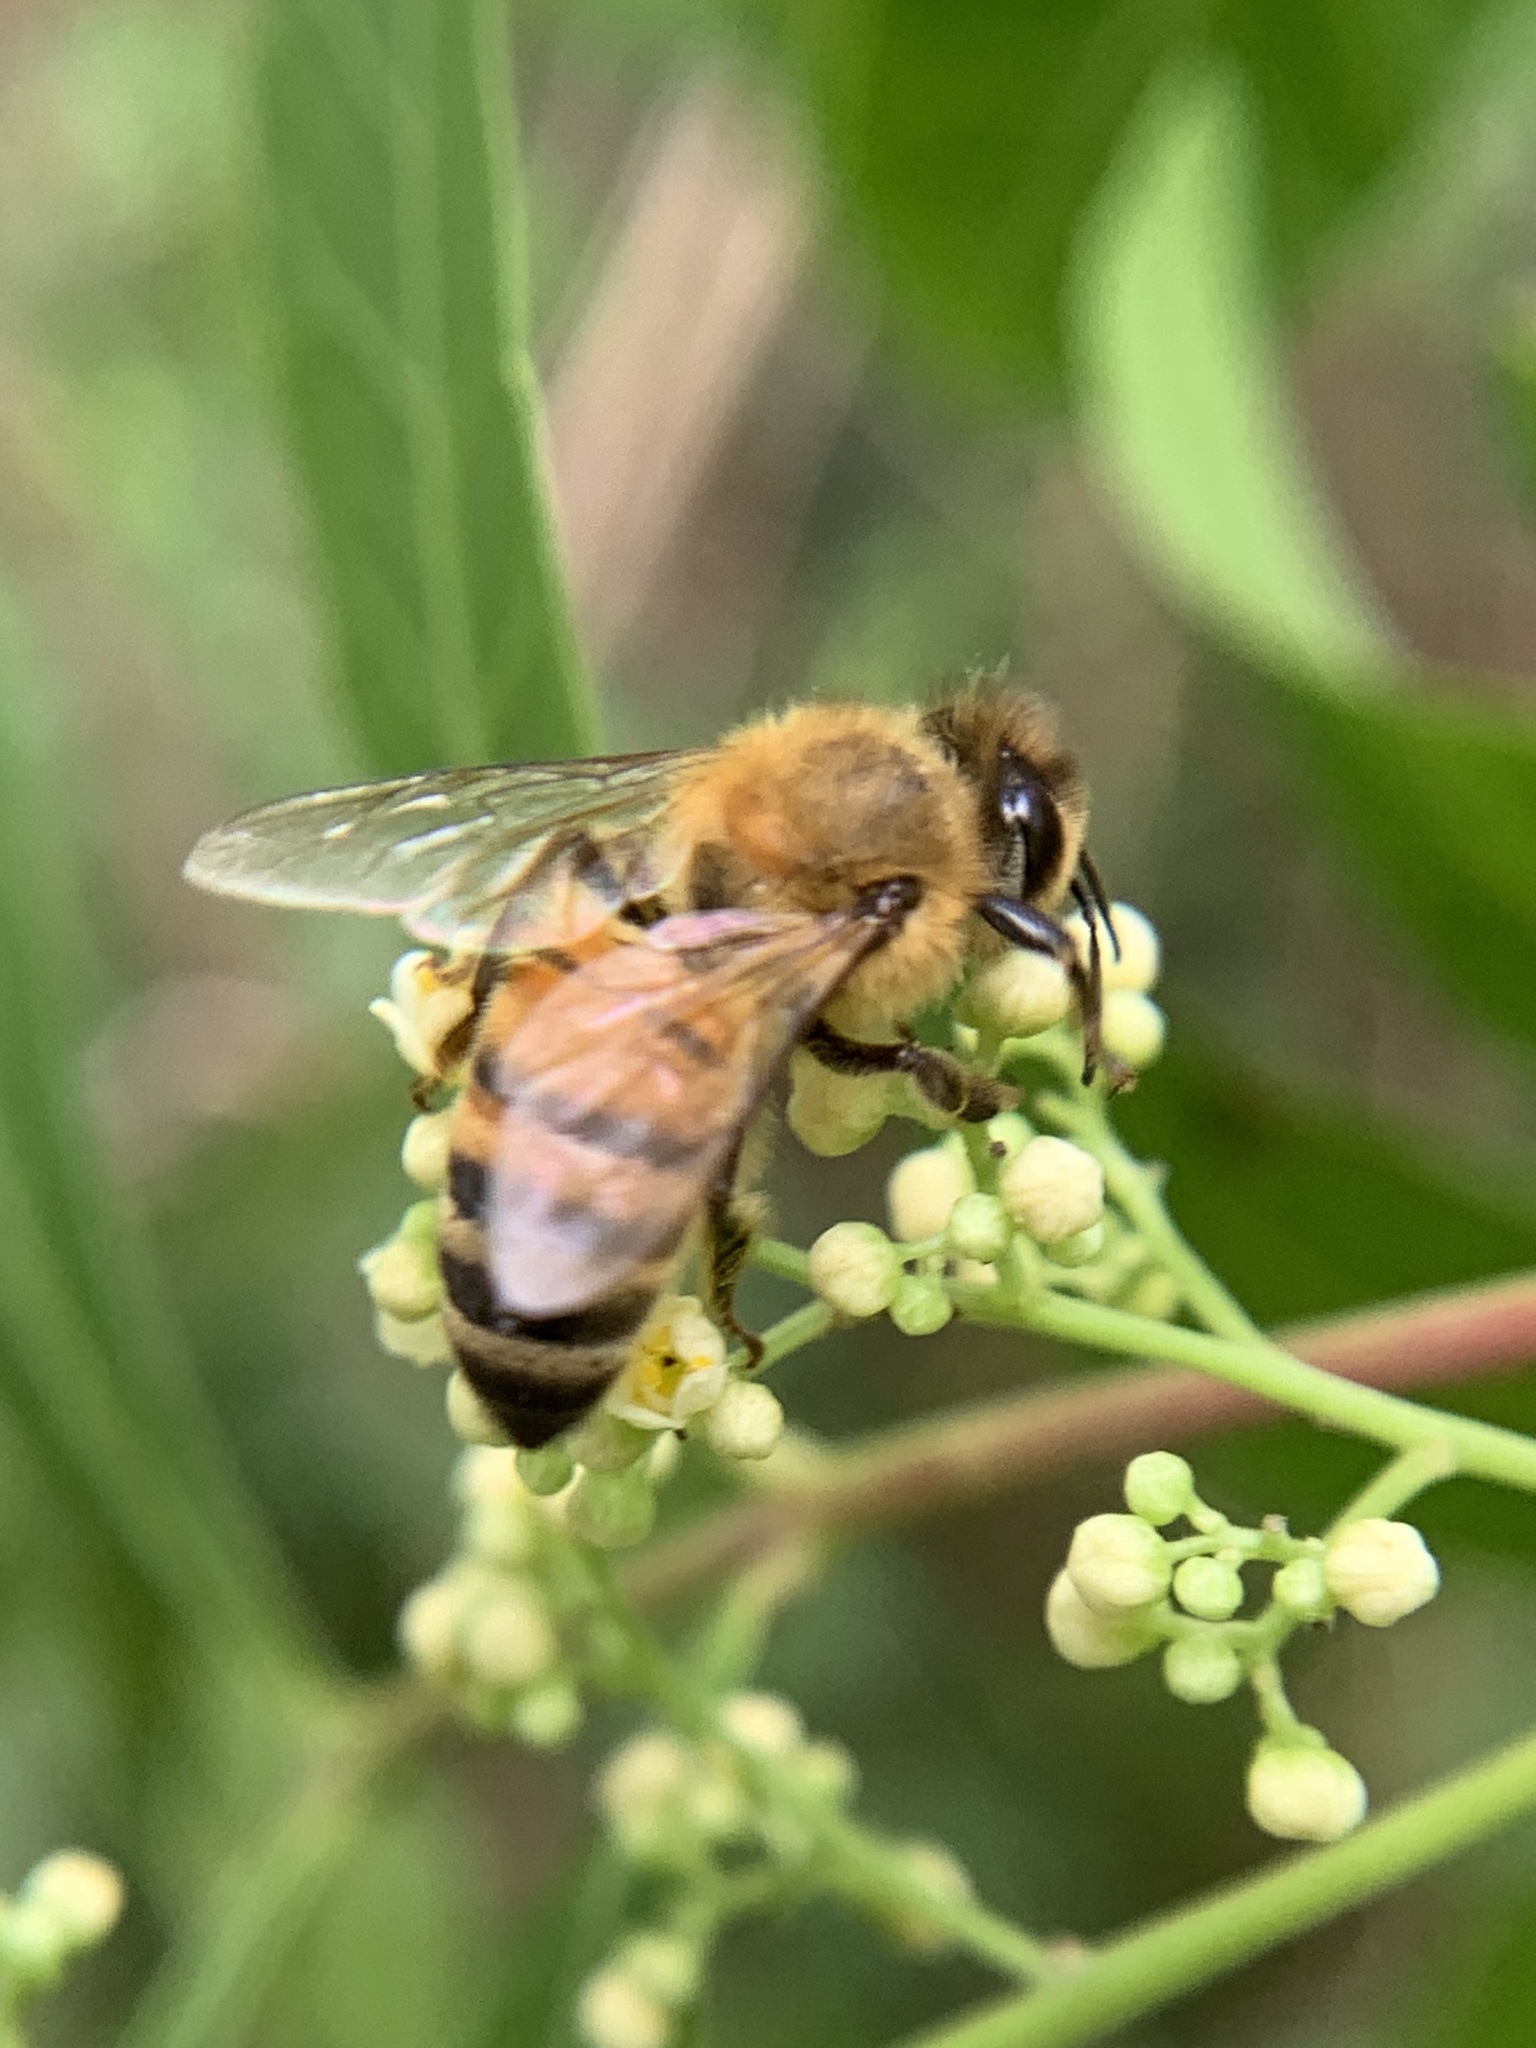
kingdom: Animalia
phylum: Arthropoda
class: Insecta
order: Hymenoptera
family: Apidae
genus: Apis
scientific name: Apis mellifera
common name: Honey bee
